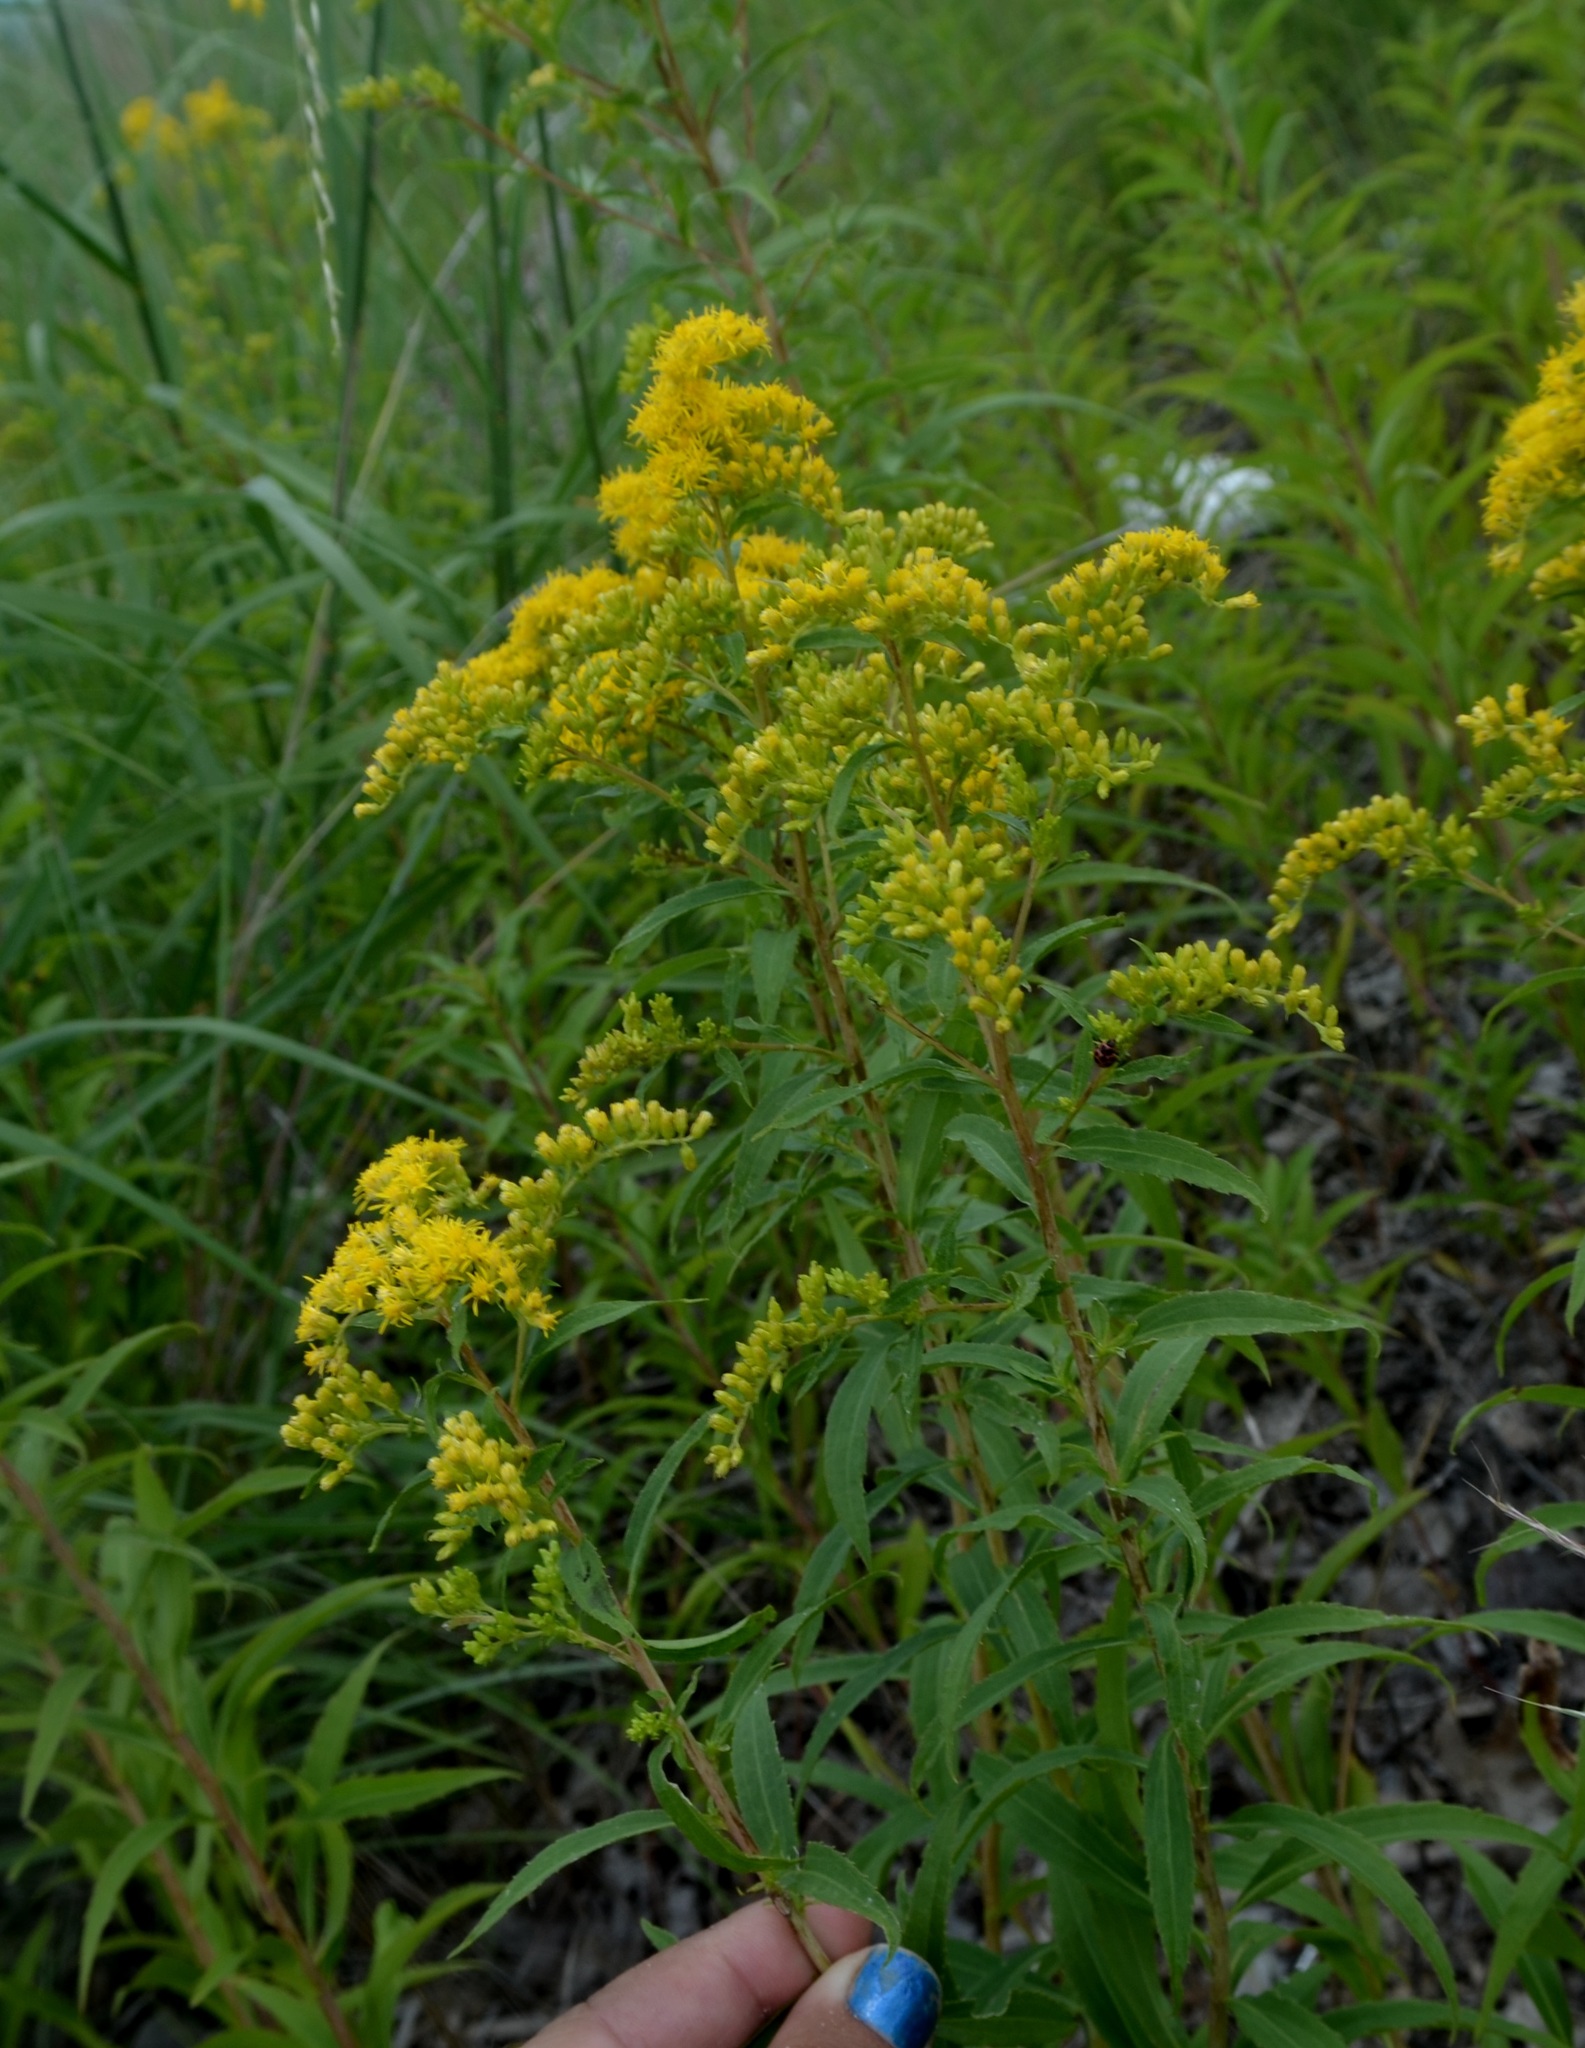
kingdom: Plantae
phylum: Tracheophyta
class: Magnoliopsida
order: Asterales
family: Asteraceae
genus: Solidago
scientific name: Solidago canadensis
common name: Canada goldenrod
